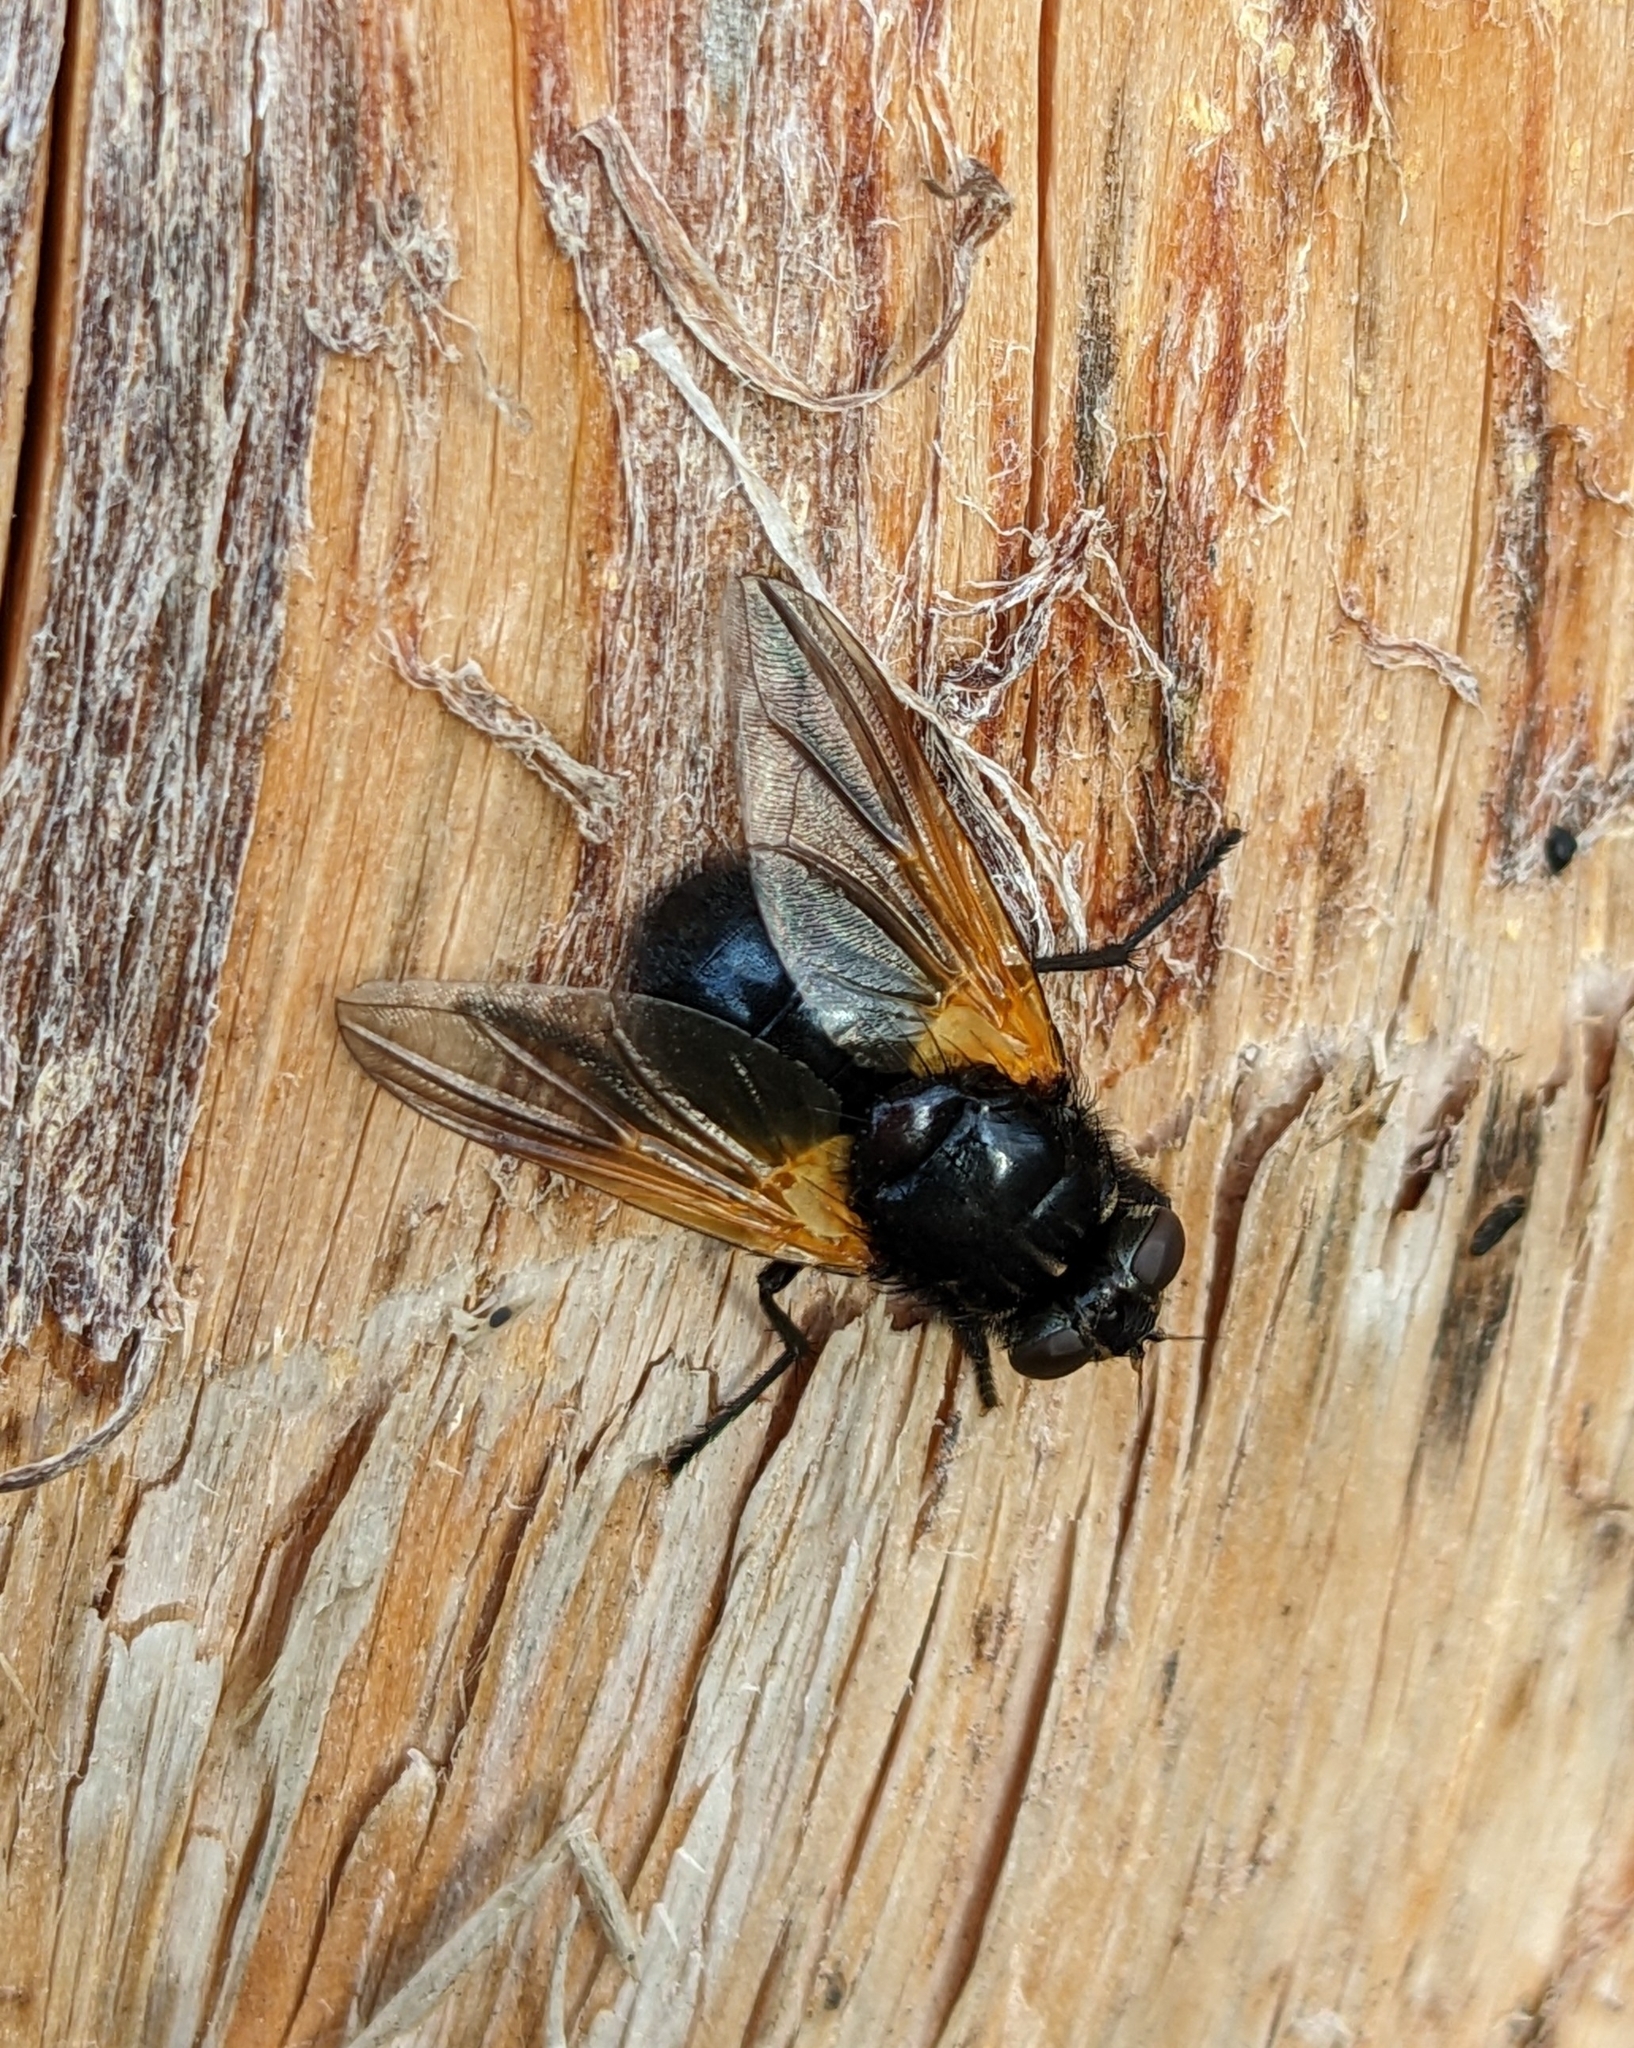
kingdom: Animalia
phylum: Arthropoda
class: Insecta
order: Diptera
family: Muscidae
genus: Mesembrina
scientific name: Mesembrina meridiana
